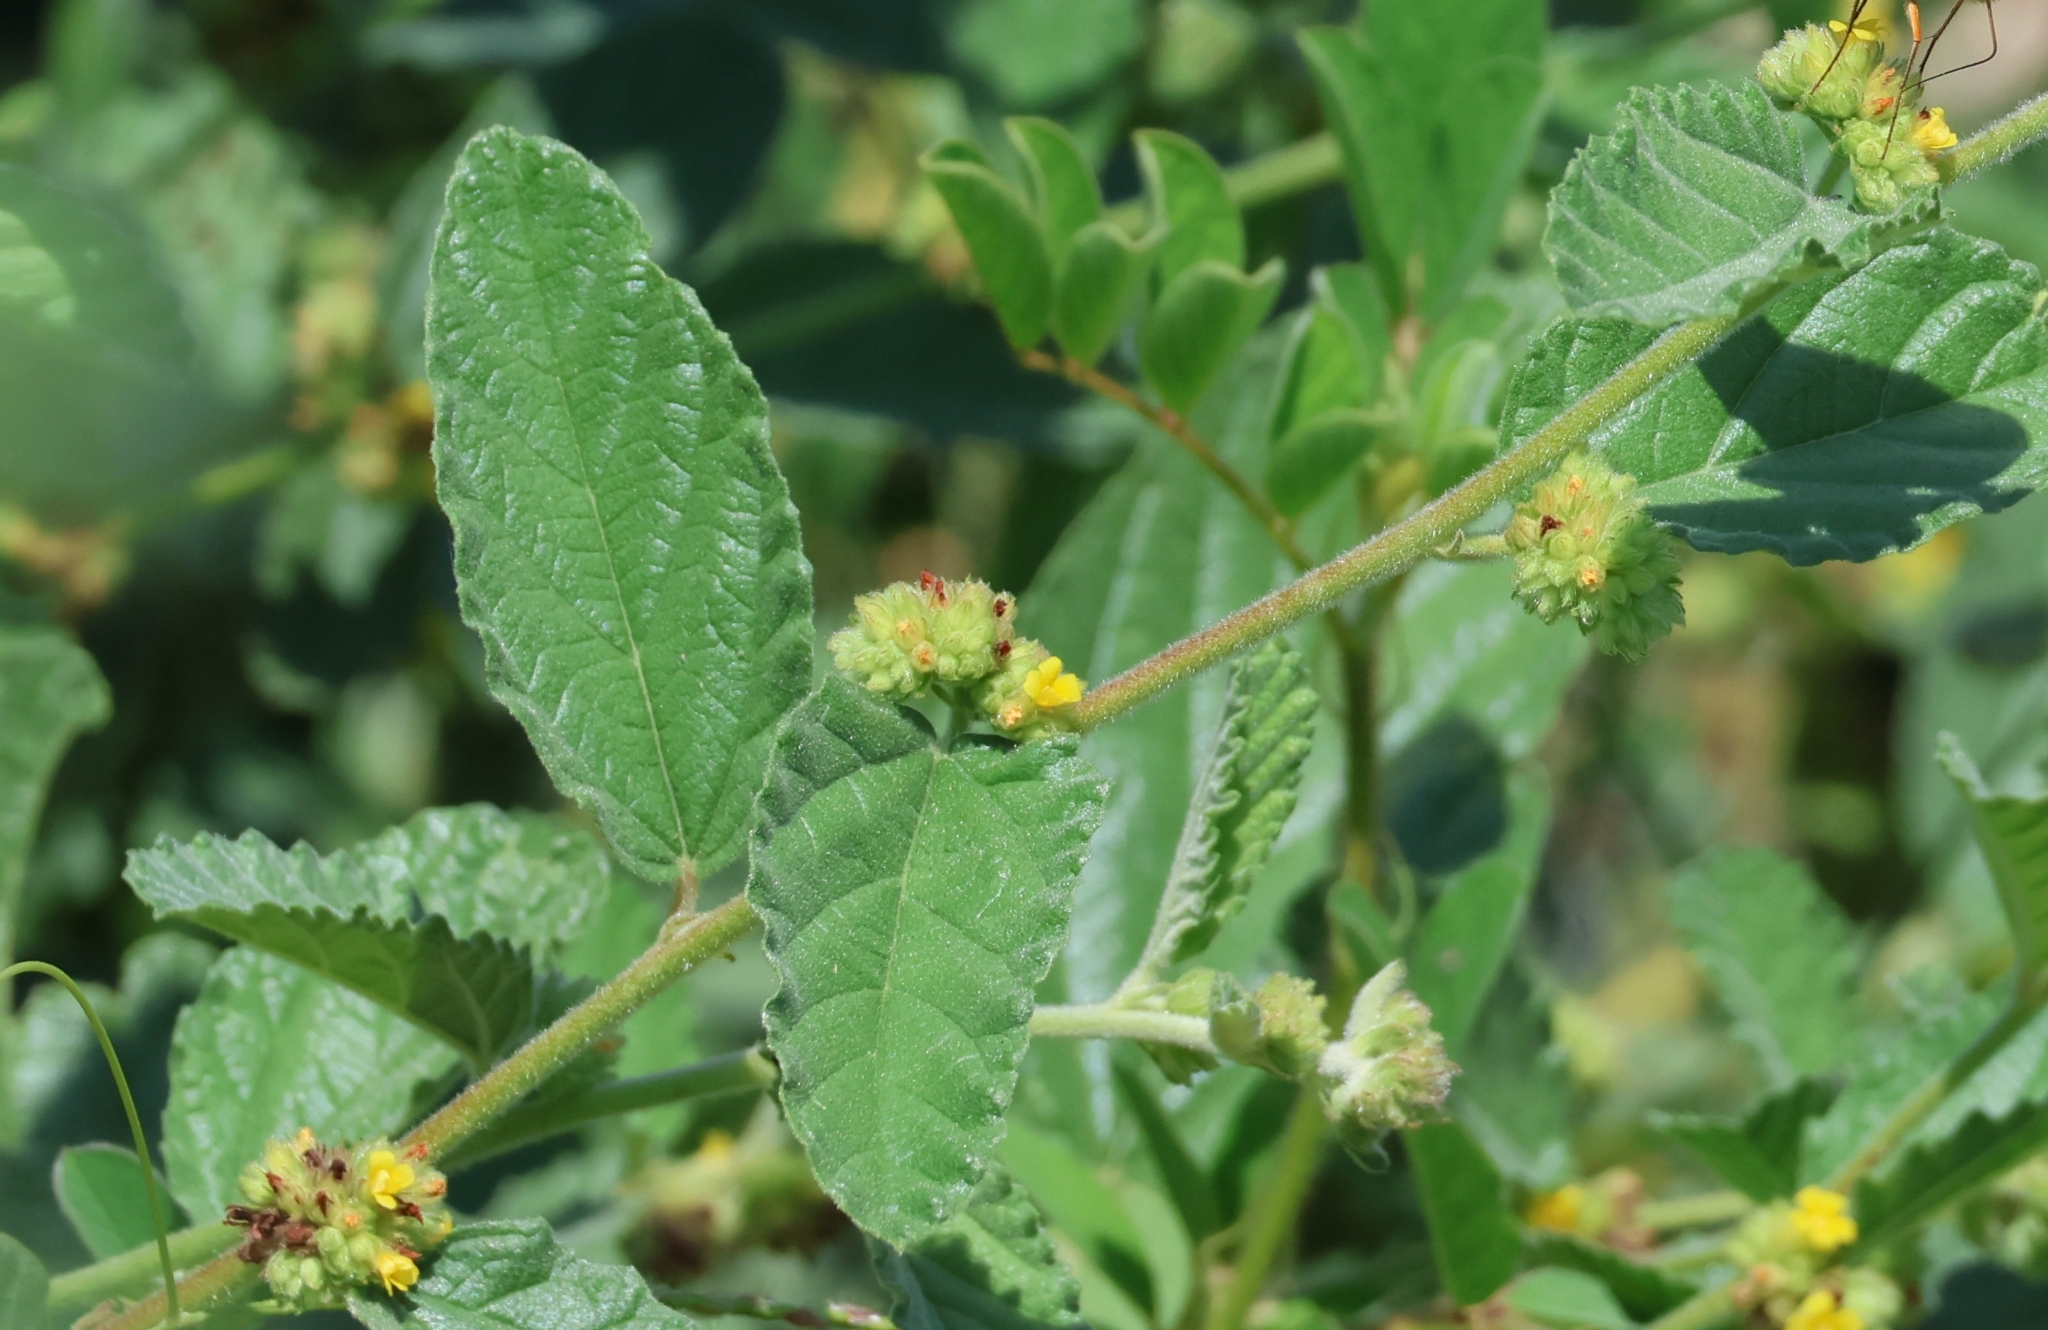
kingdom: Plantae
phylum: Tracheophyta
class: Magnoliopsida
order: Malvales
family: Malvaceae
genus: Waltheria
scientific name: Waltheria indica
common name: Leather-coat
